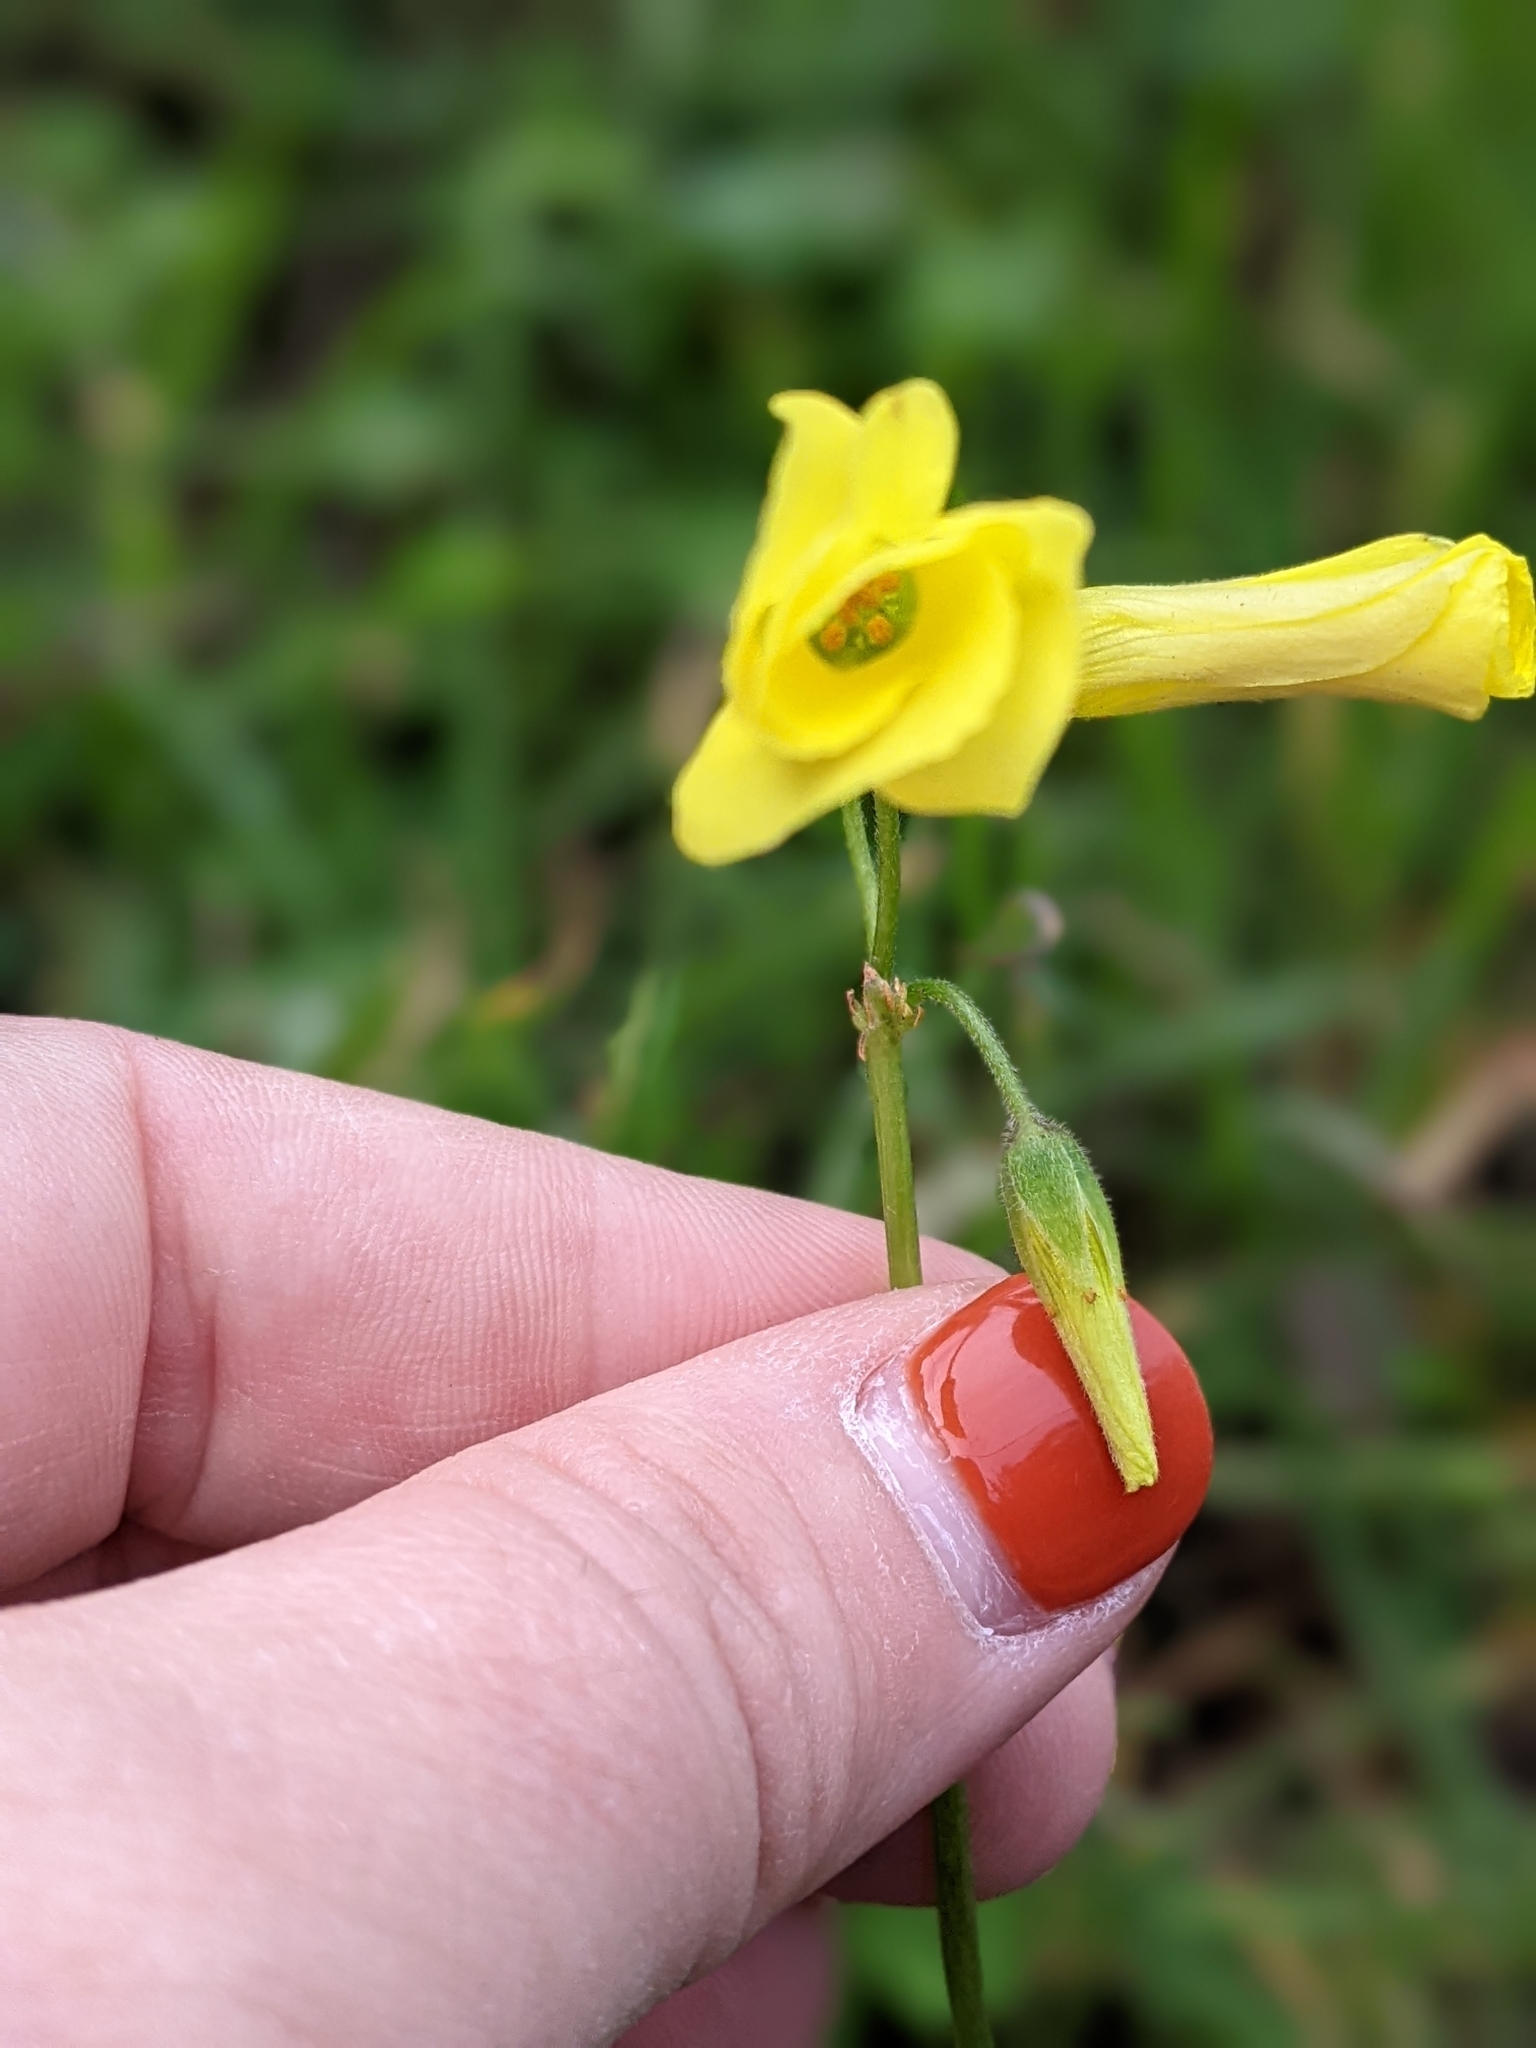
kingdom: Plantae
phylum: Tracheophyta
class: Magnoliopsida
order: Oxalidales
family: Oxalidaceae
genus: Oxalis
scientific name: Oxalis pes-caprae
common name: Bermuda-buttercup
